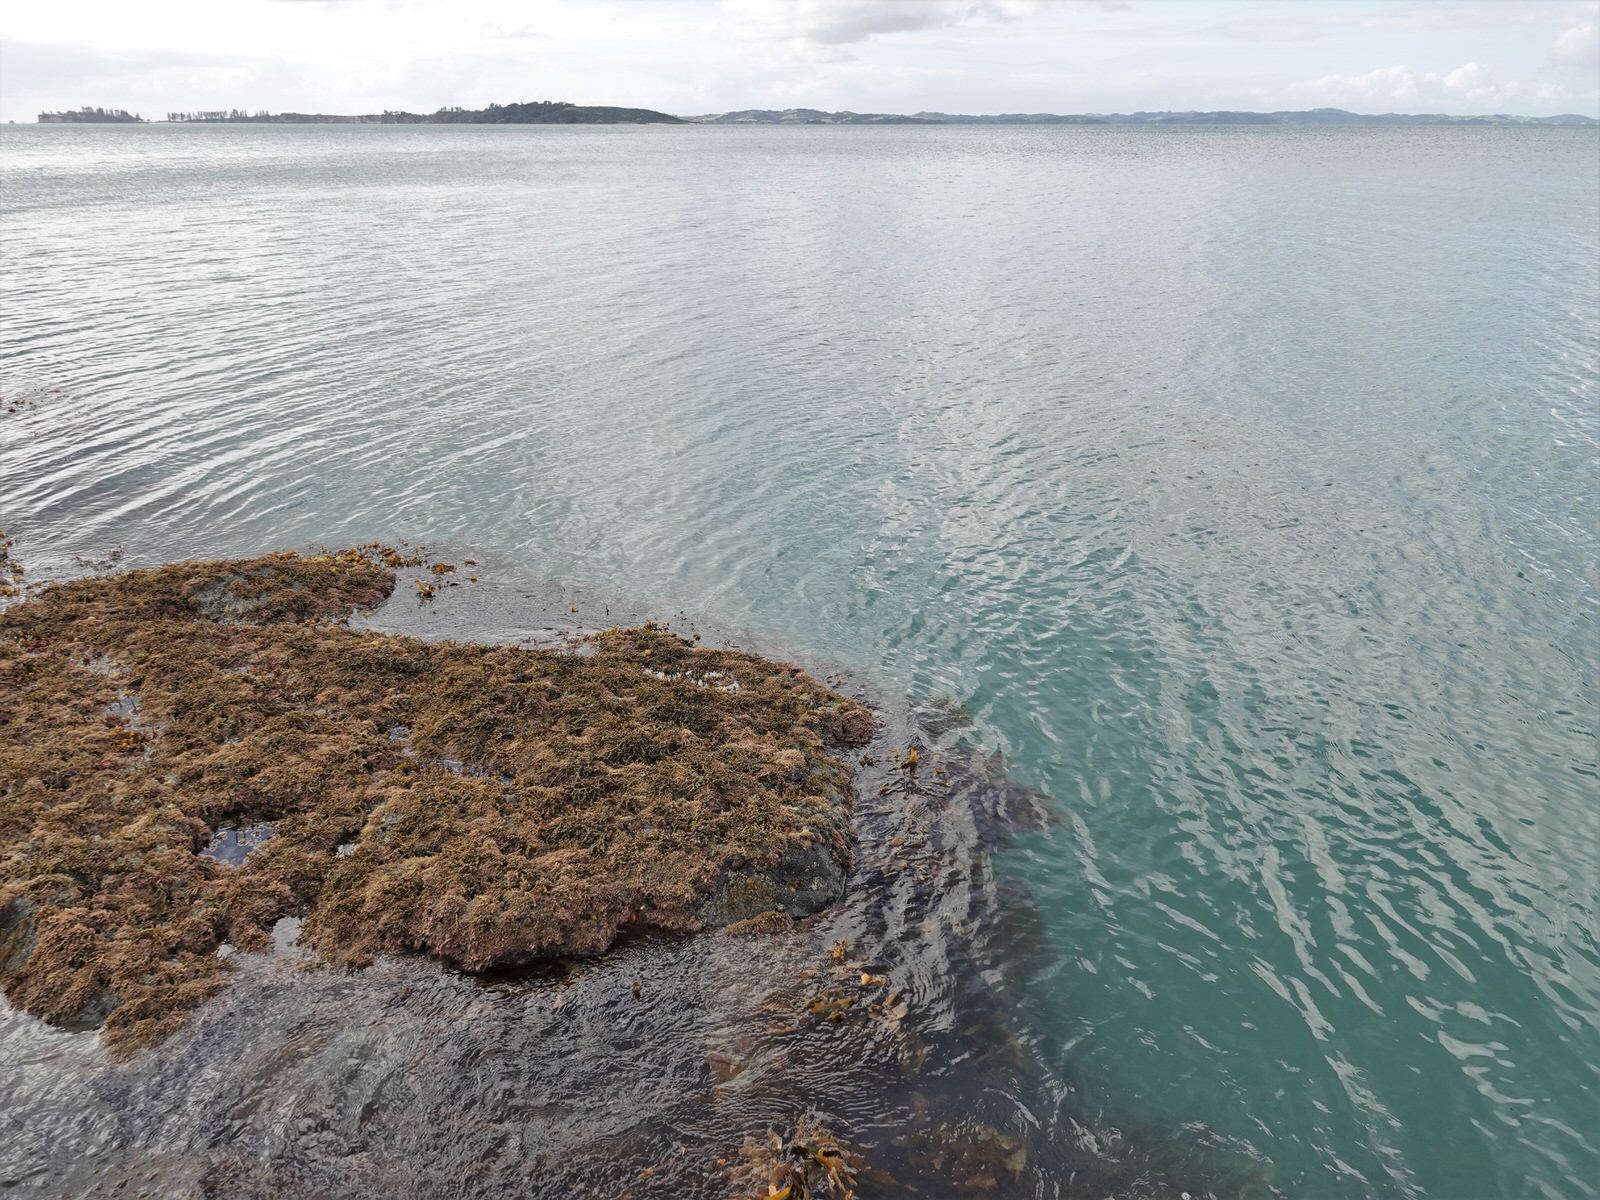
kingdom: Animalia
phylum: Bryozoa
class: Gymnolaemata
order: Cheilostomatida
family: Watersiporidae
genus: Watersipora
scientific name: Watersipora subatra
